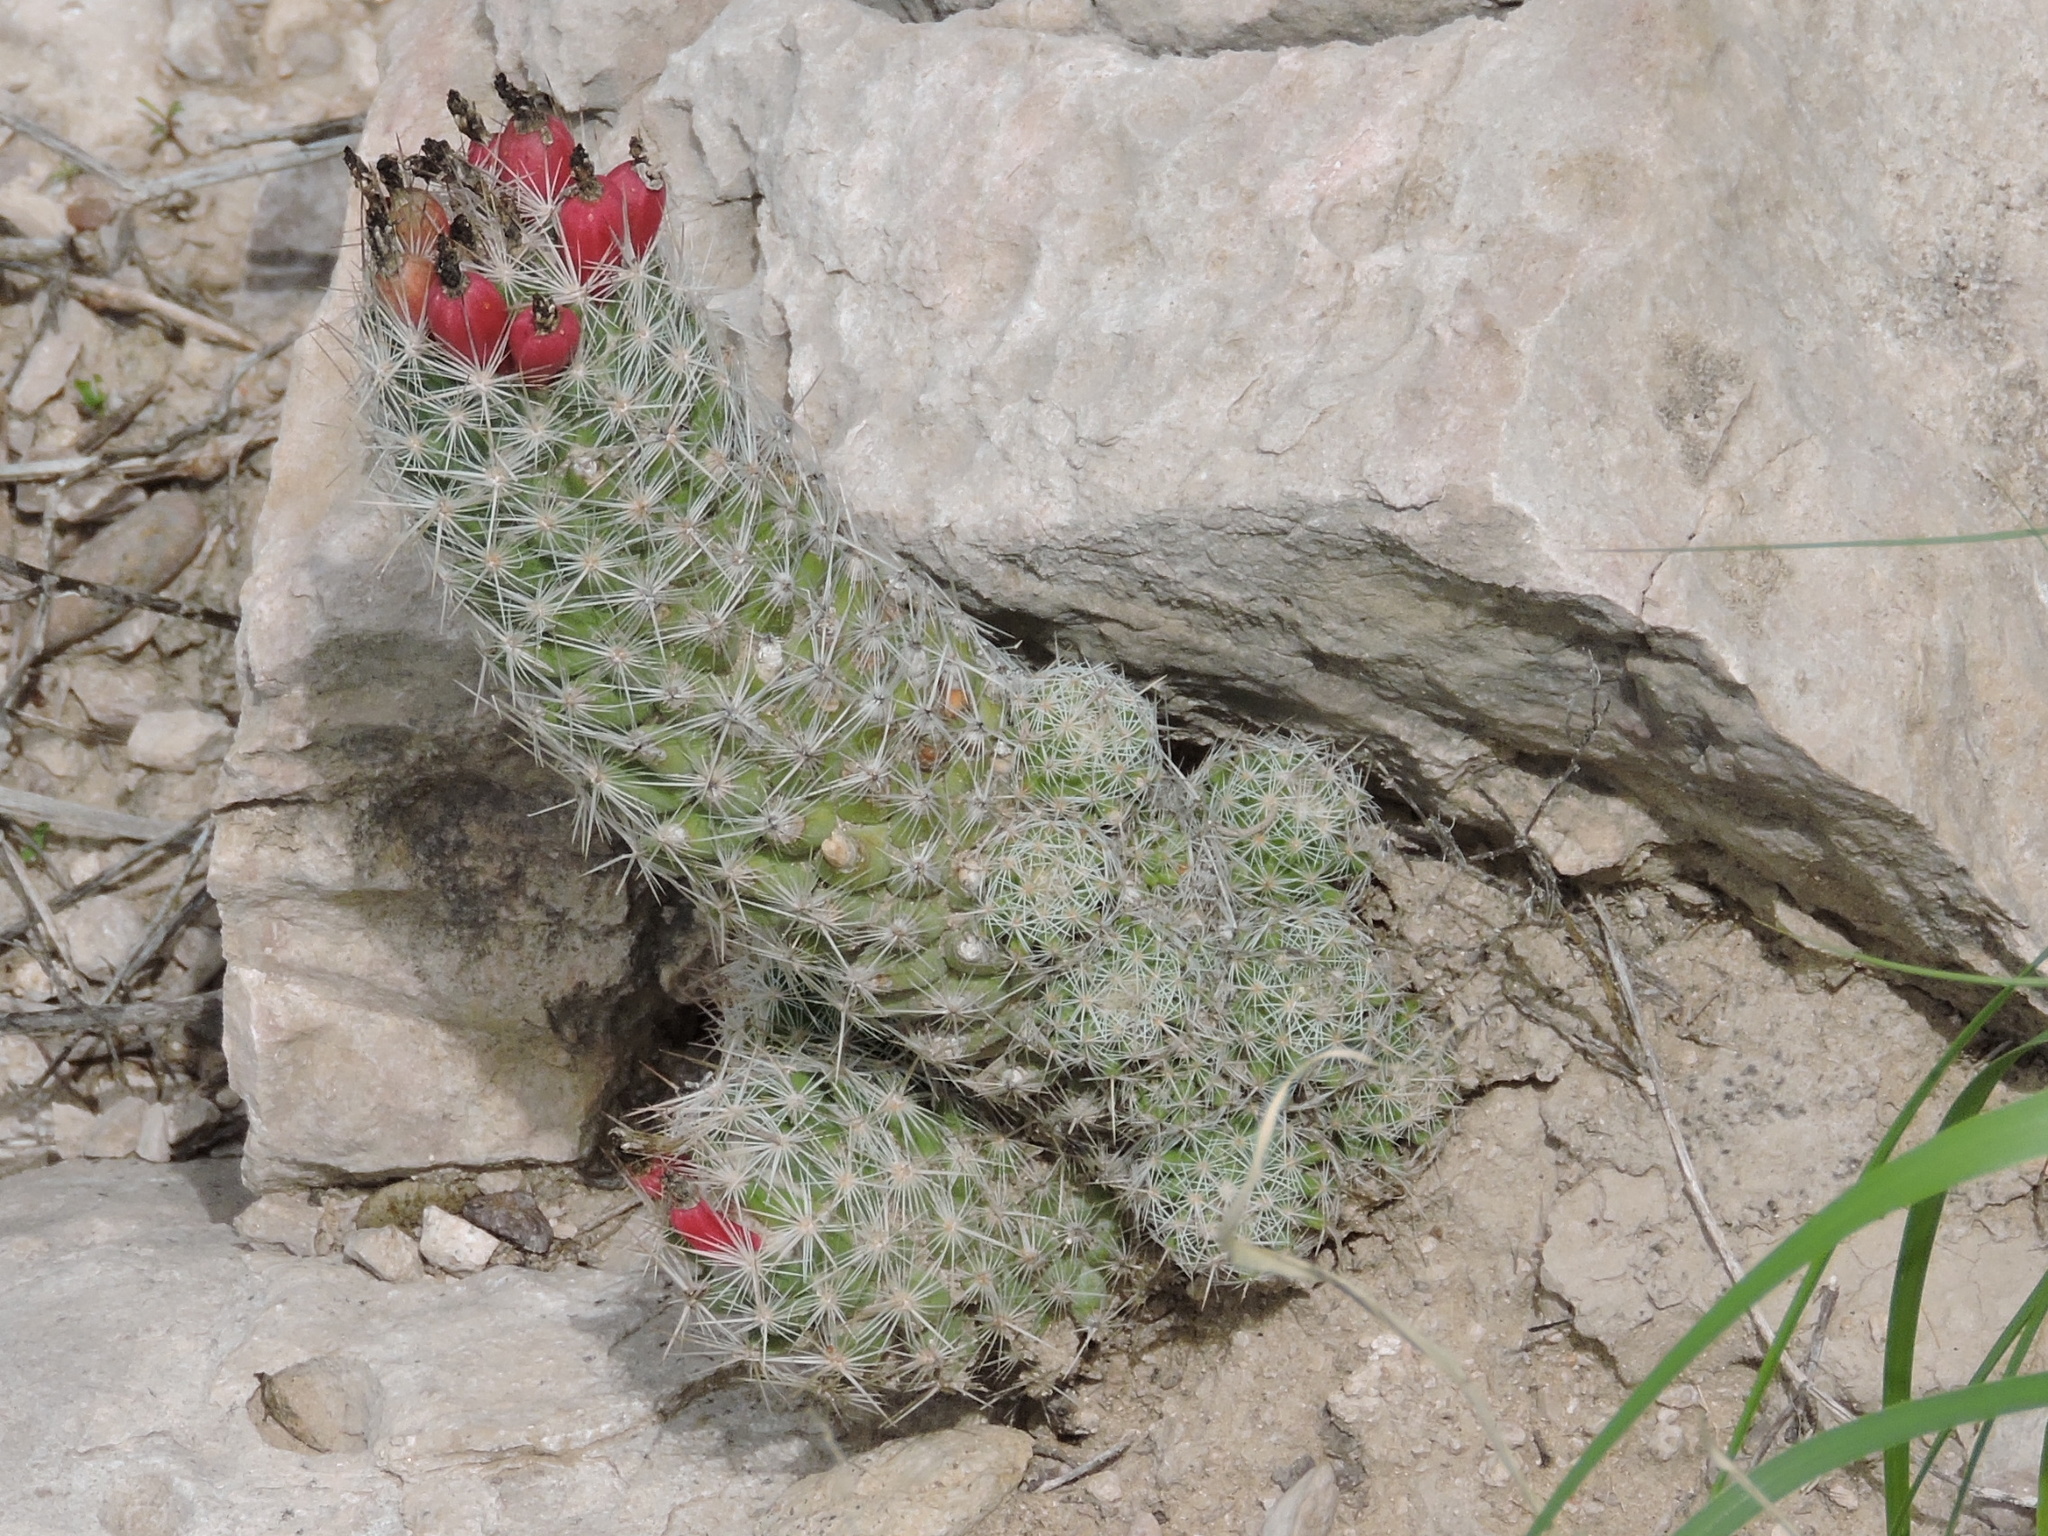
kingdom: Plantae
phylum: Tracheophyta
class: Magnoliopsida
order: Caryophyllales
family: Cactaceae
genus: Pelecyphora
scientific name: Pelecyphora tuberculosa
